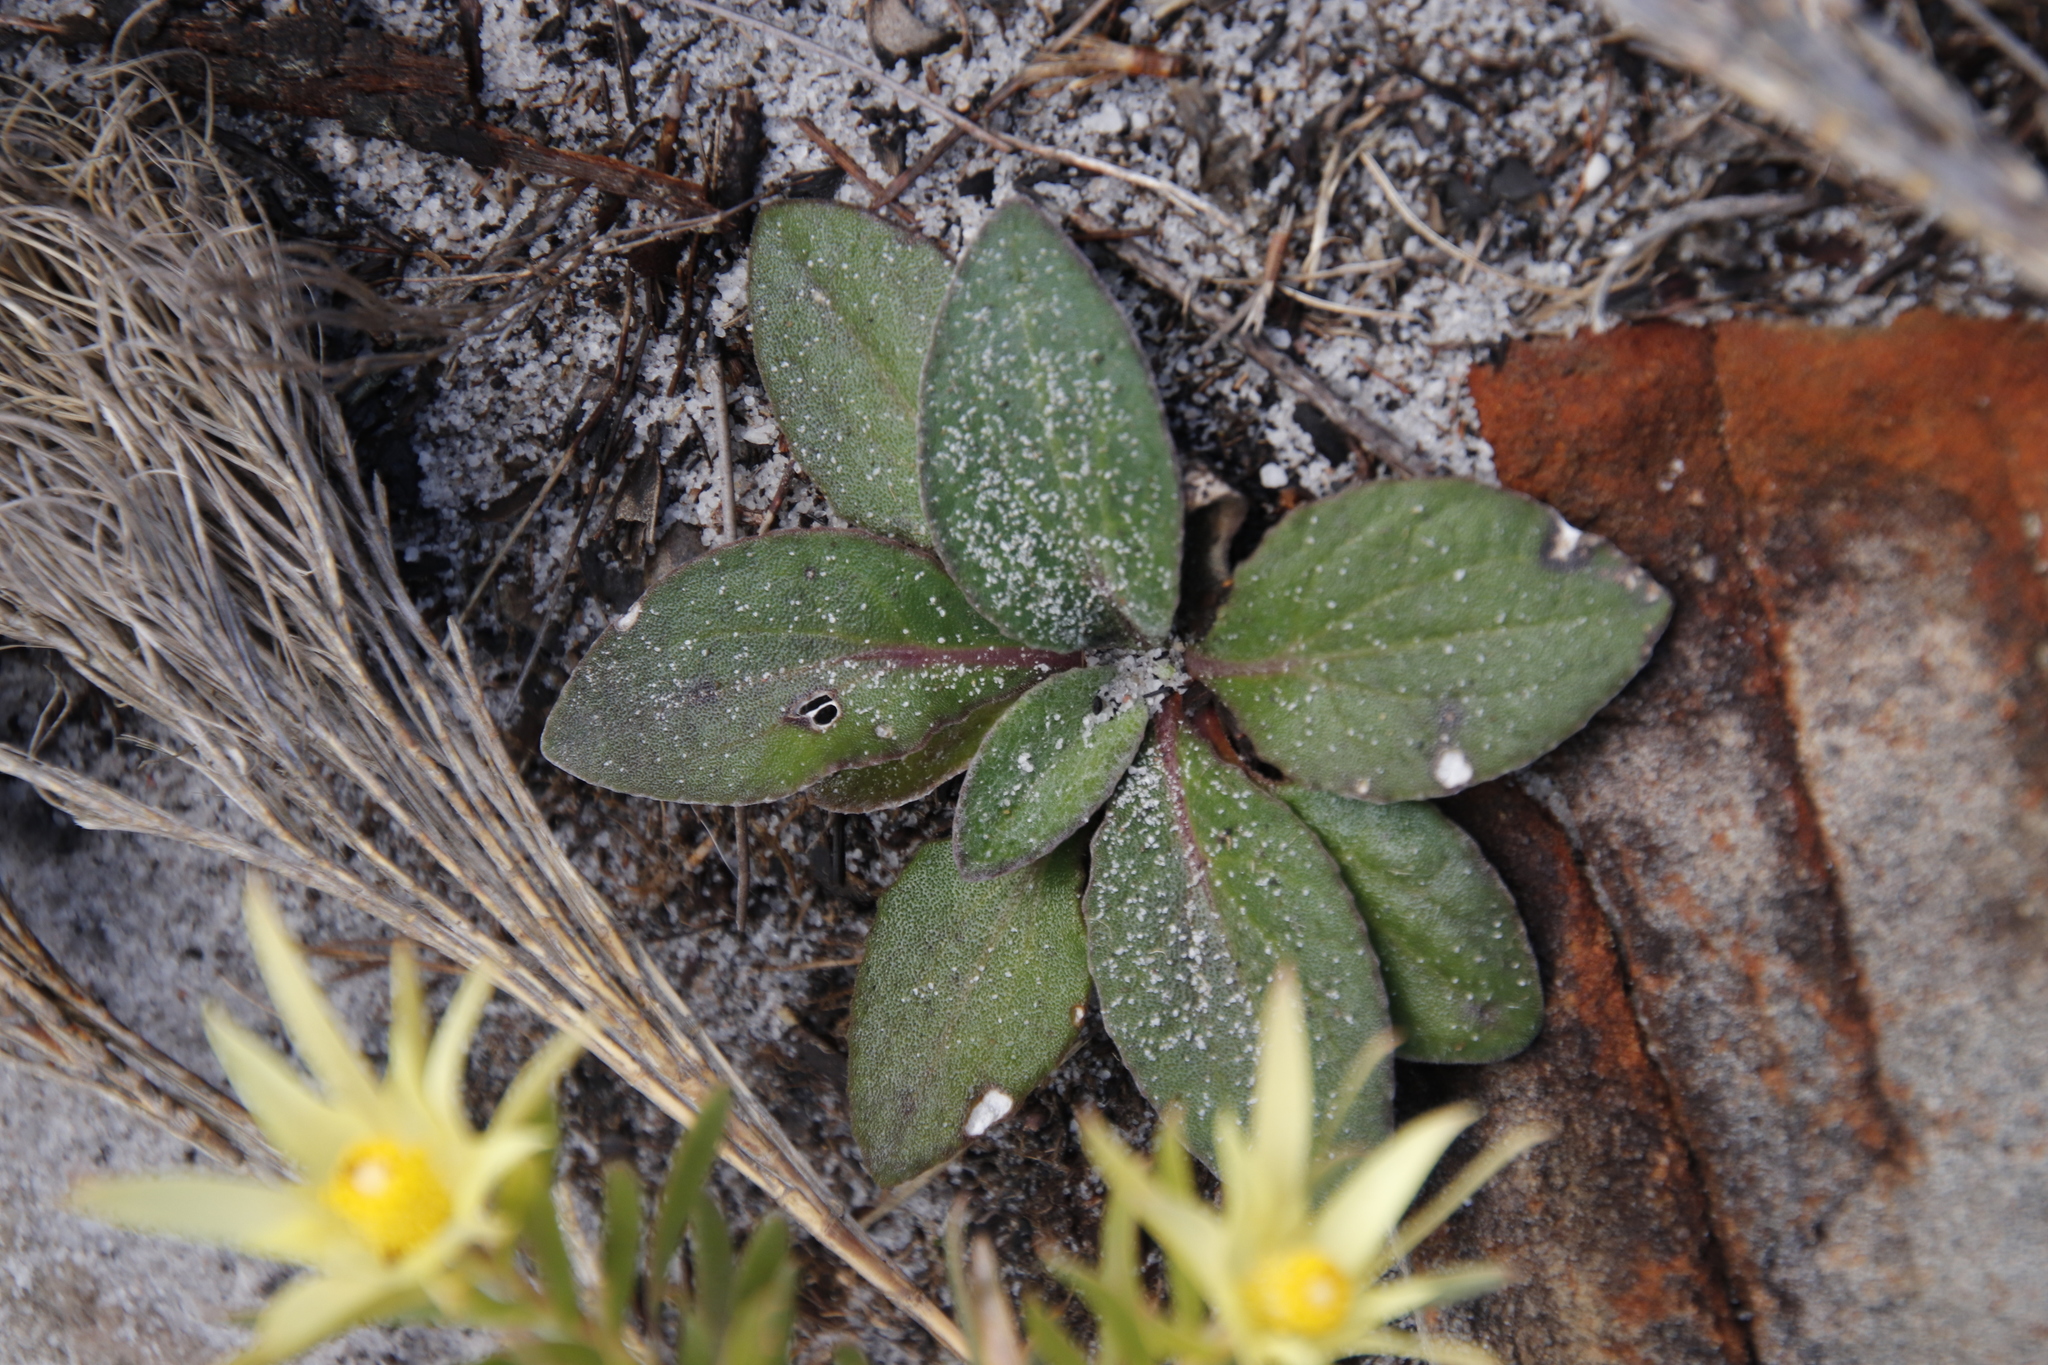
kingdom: Plantae
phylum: Tracheophyta
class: Magnoliopsida
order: Asterales
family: Asteraceae
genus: Haplocarpha
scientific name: Haplocarpha lanata
